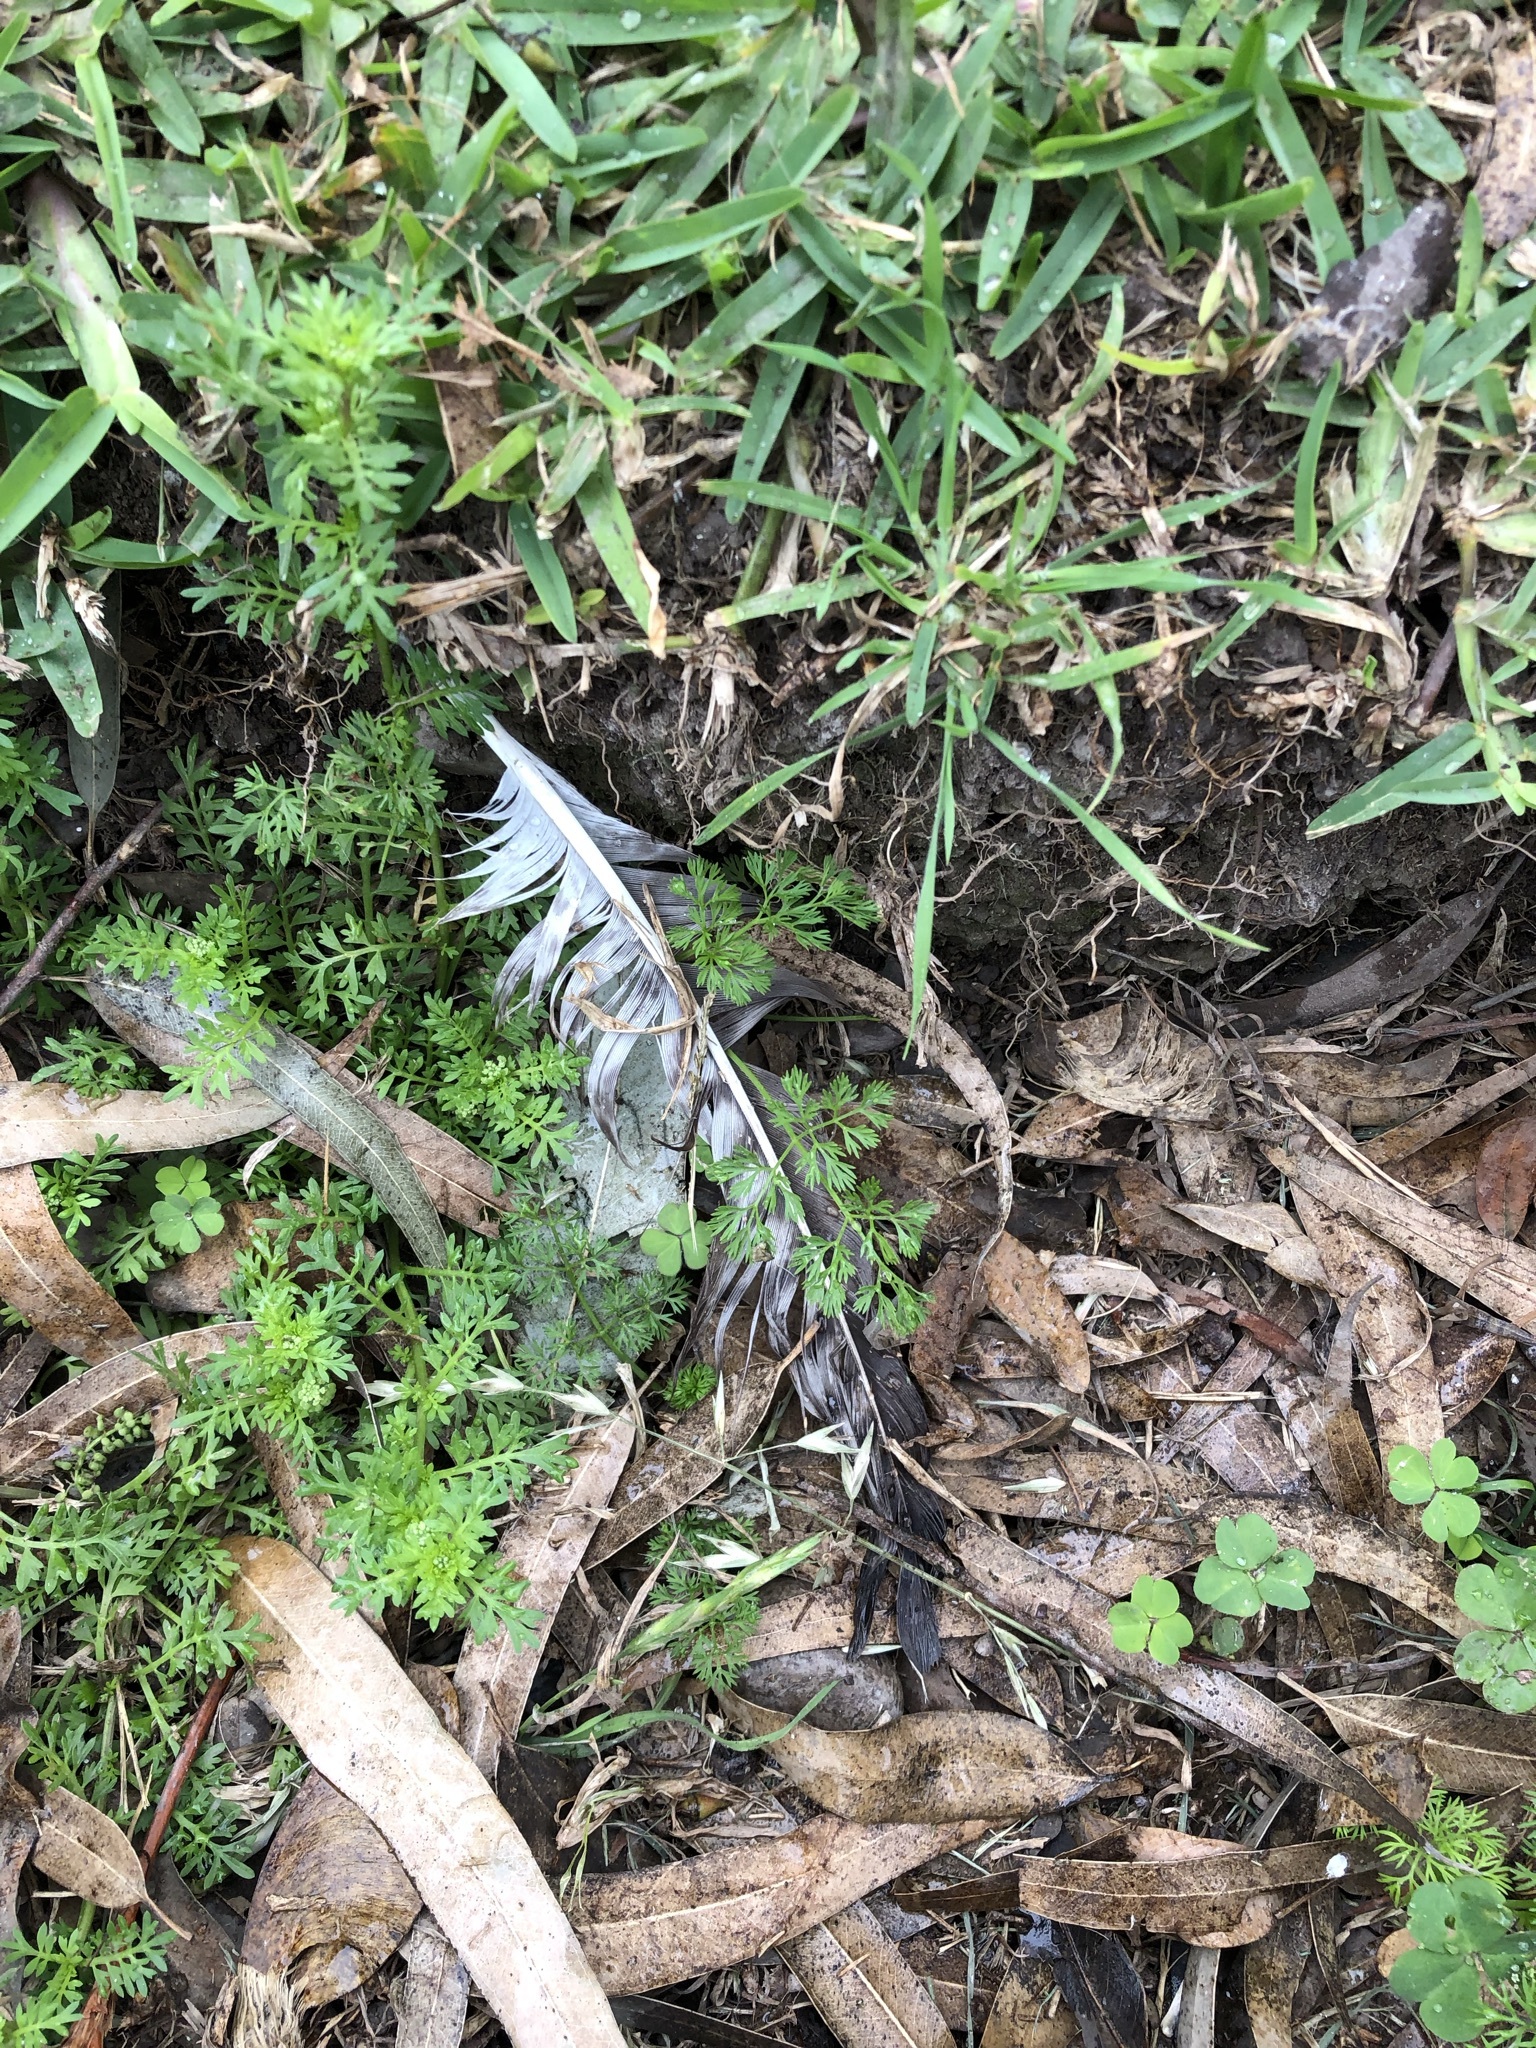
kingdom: Animalia
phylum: Chordata
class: Aves
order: Accipitriformes
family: Accipitridae
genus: Parabuteo
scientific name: Parabuteo unicinctus
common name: Harris's hawk
